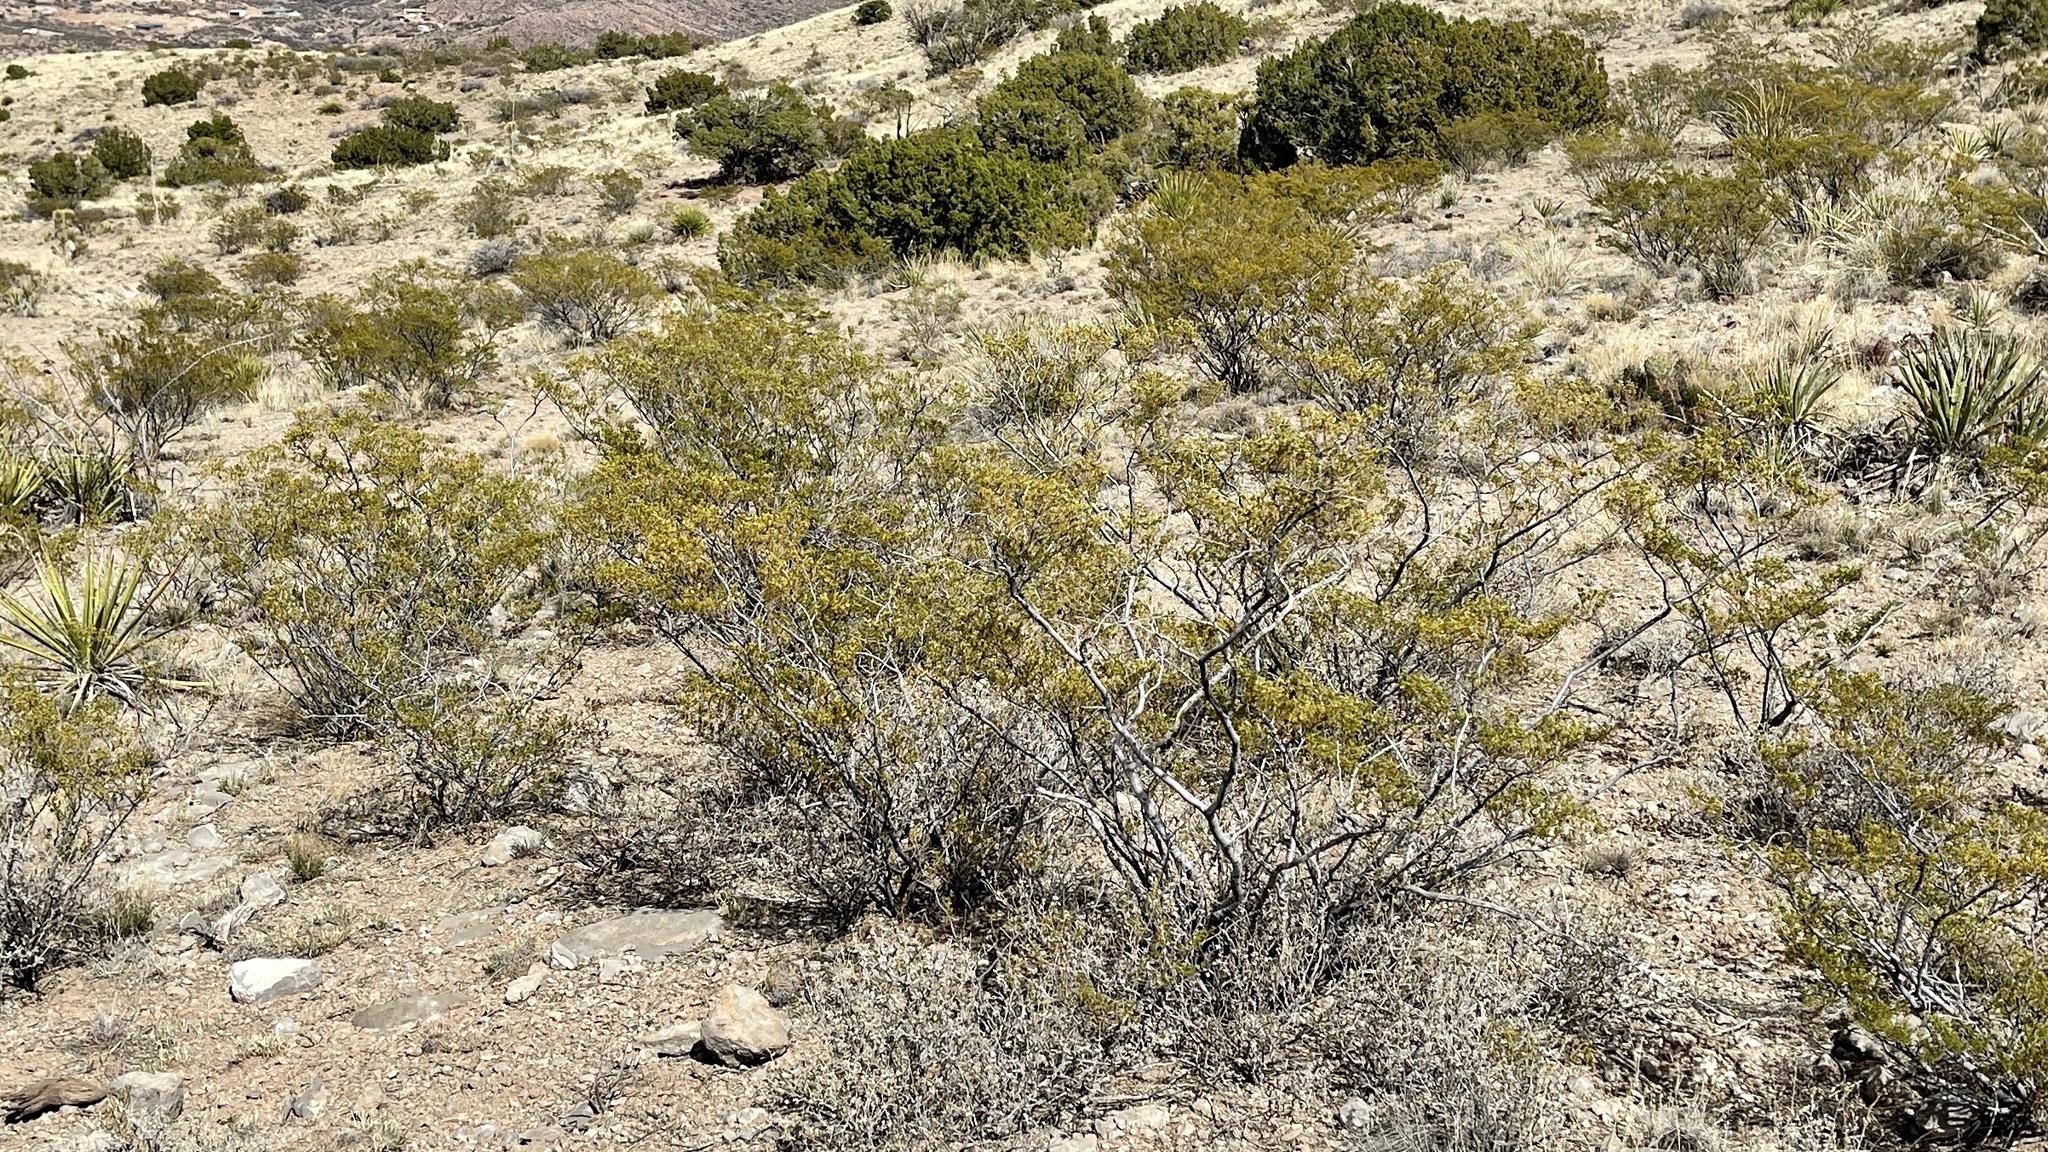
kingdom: Plantae
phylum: Tracheophyta
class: Magnoliopsida
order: Zygophyllales
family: Zygophyllaceae
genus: Larrea
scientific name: Larrea tridentata
